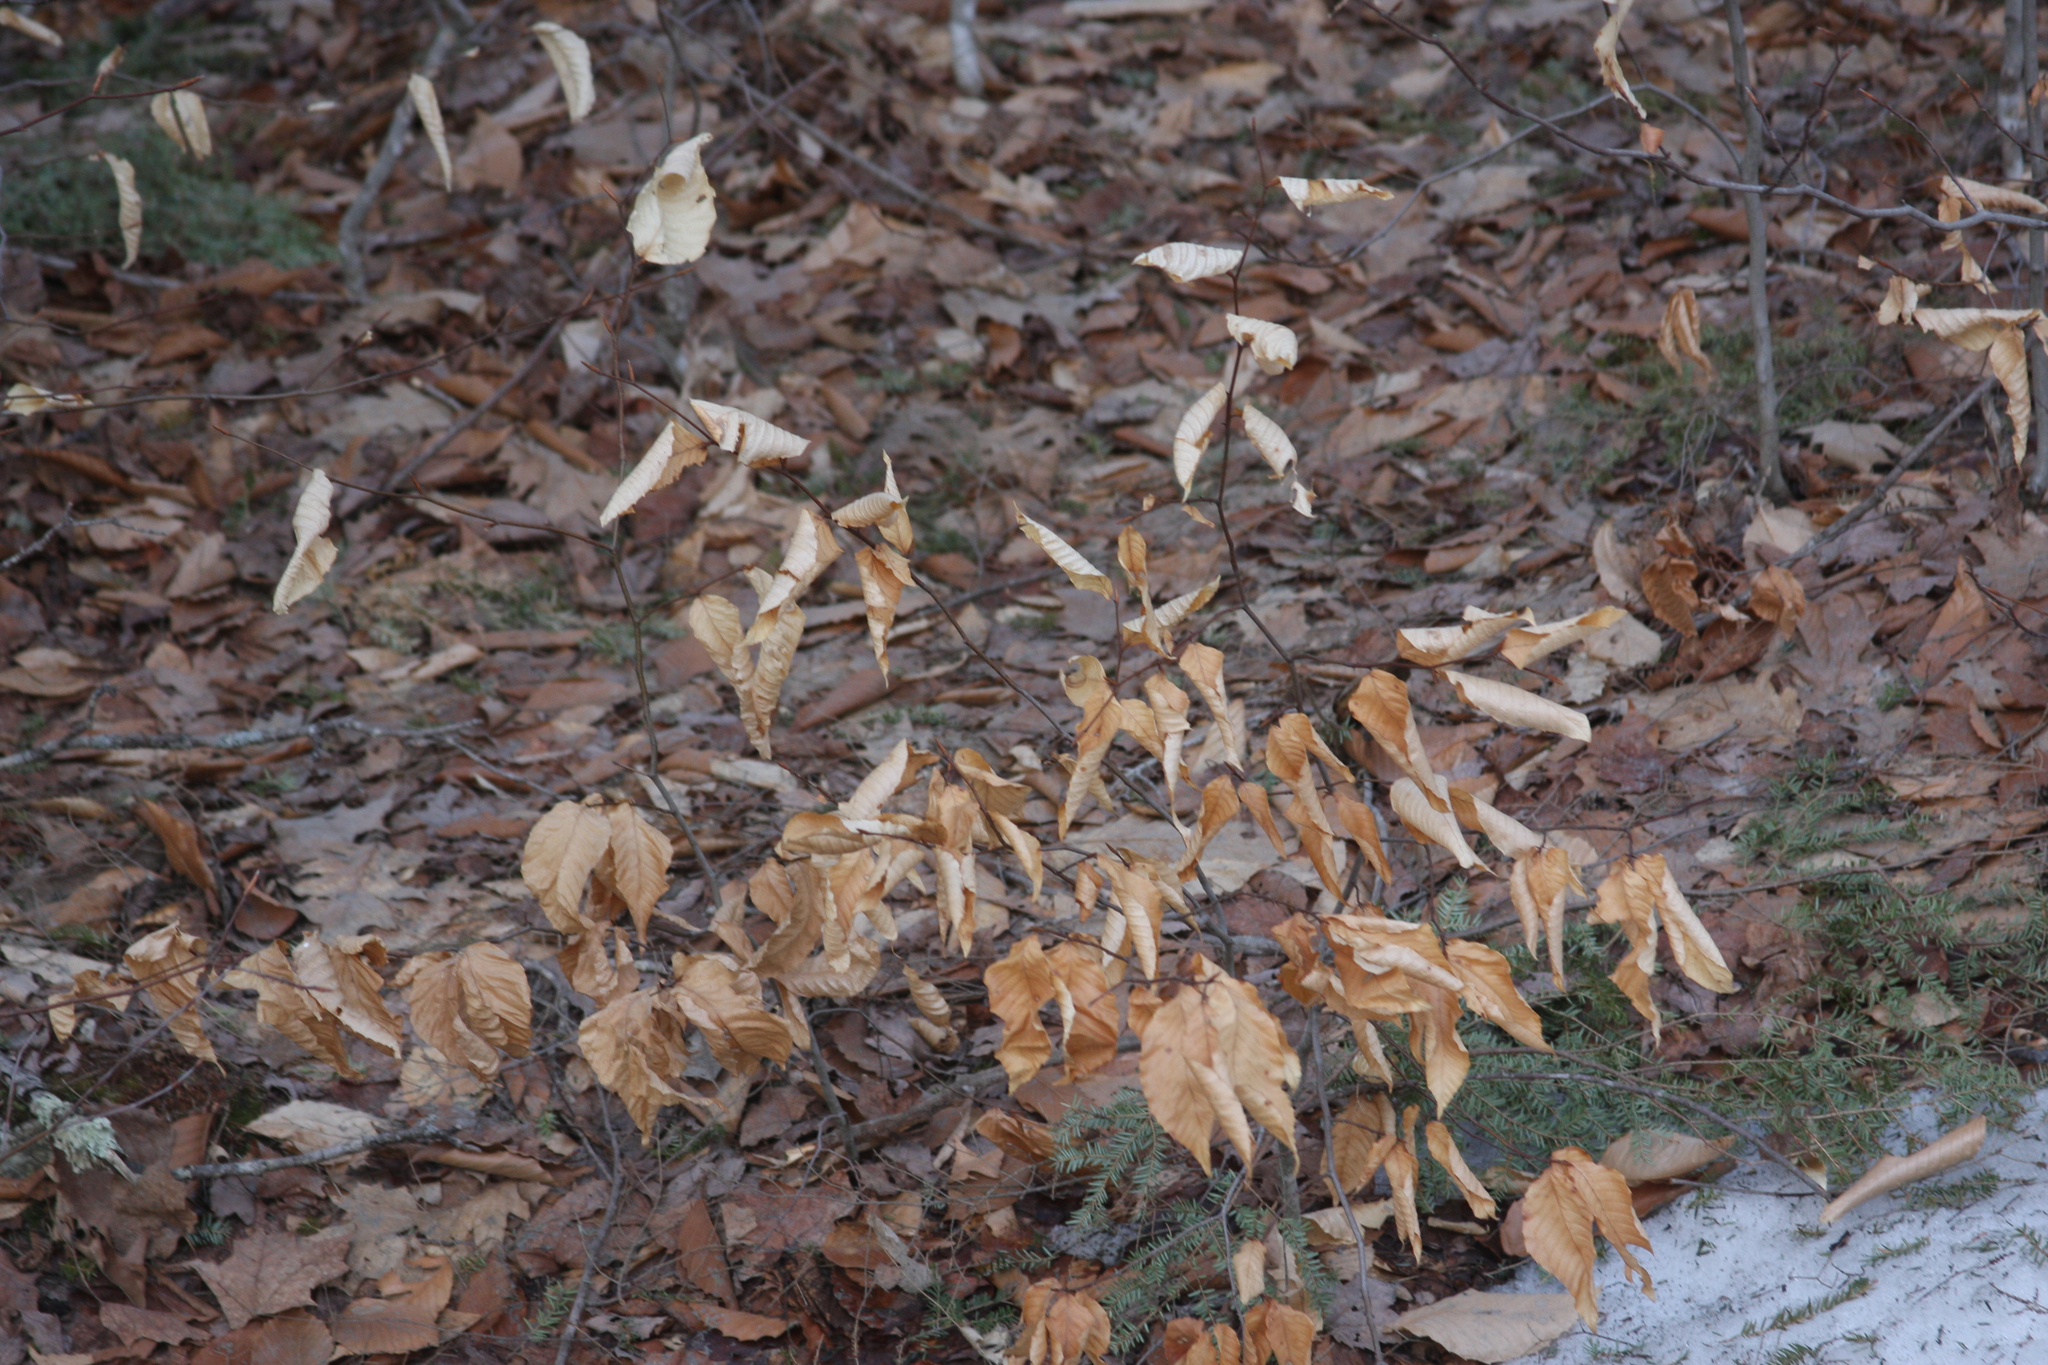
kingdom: Plantae
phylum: Tracheophyta
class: Magnoliopsida
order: Fagales
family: Fagaceae
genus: Fagus
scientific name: Fagus grandifolia
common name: American beech
